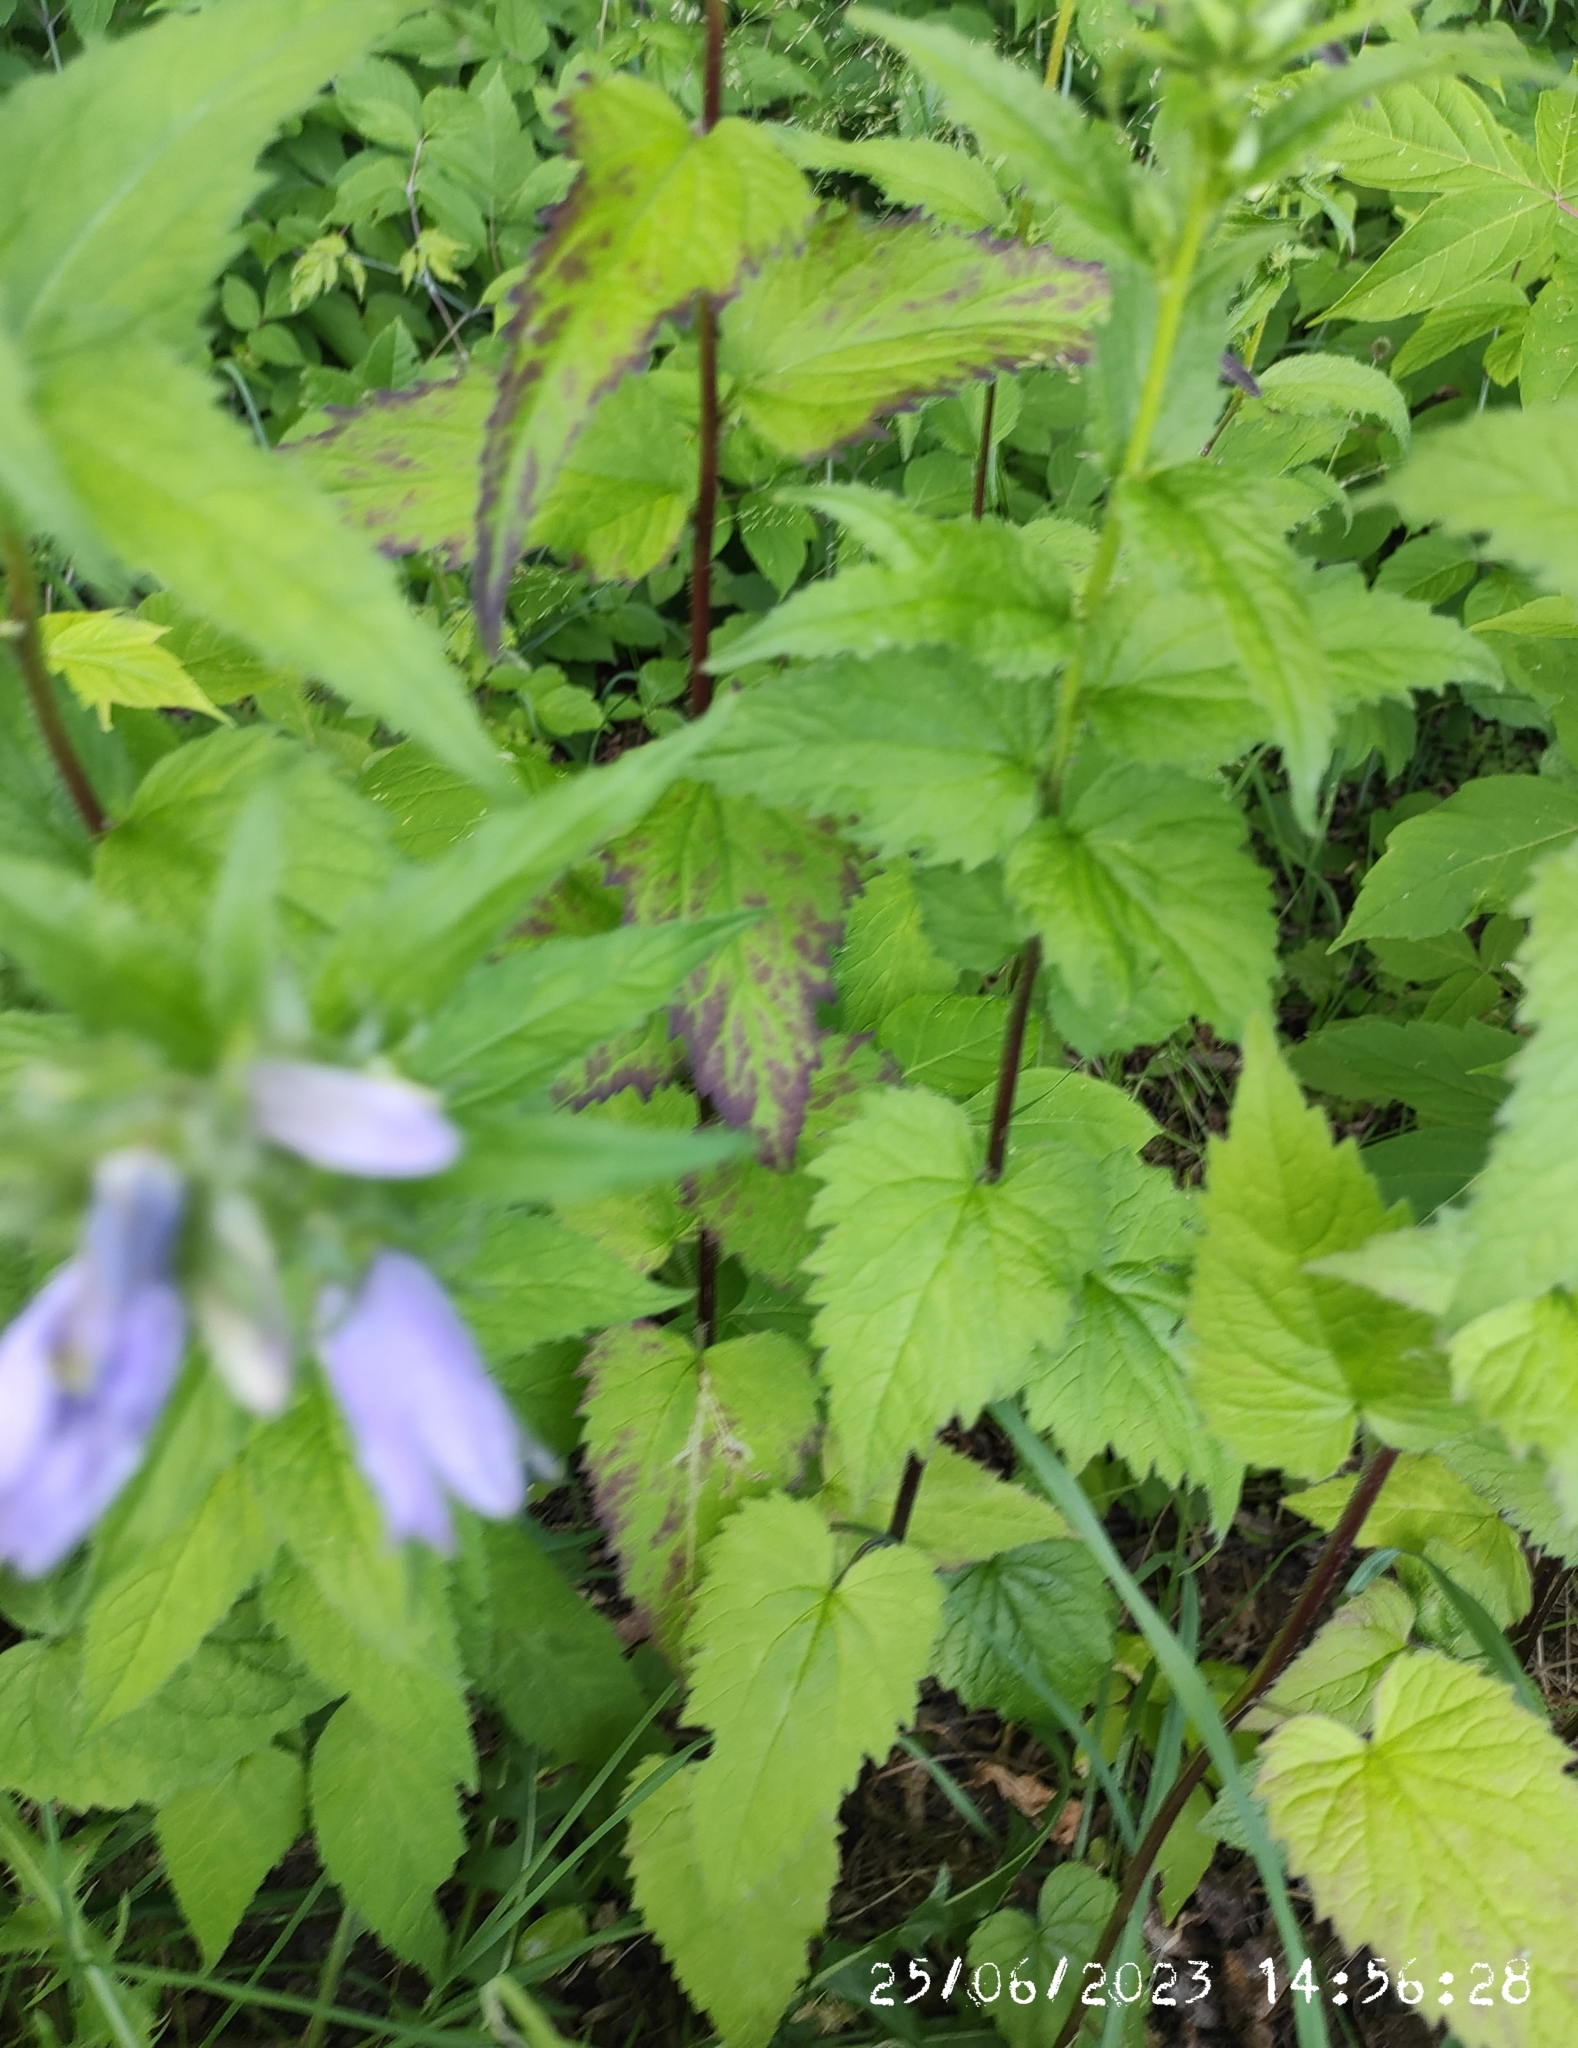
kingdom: Plantae
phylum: Tracheophyta
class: Magnoliopsida
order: Asterales
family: Campanulaceae
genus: Campanula
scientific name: Campanula trachelium
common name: Nettle-leaved bellflower
